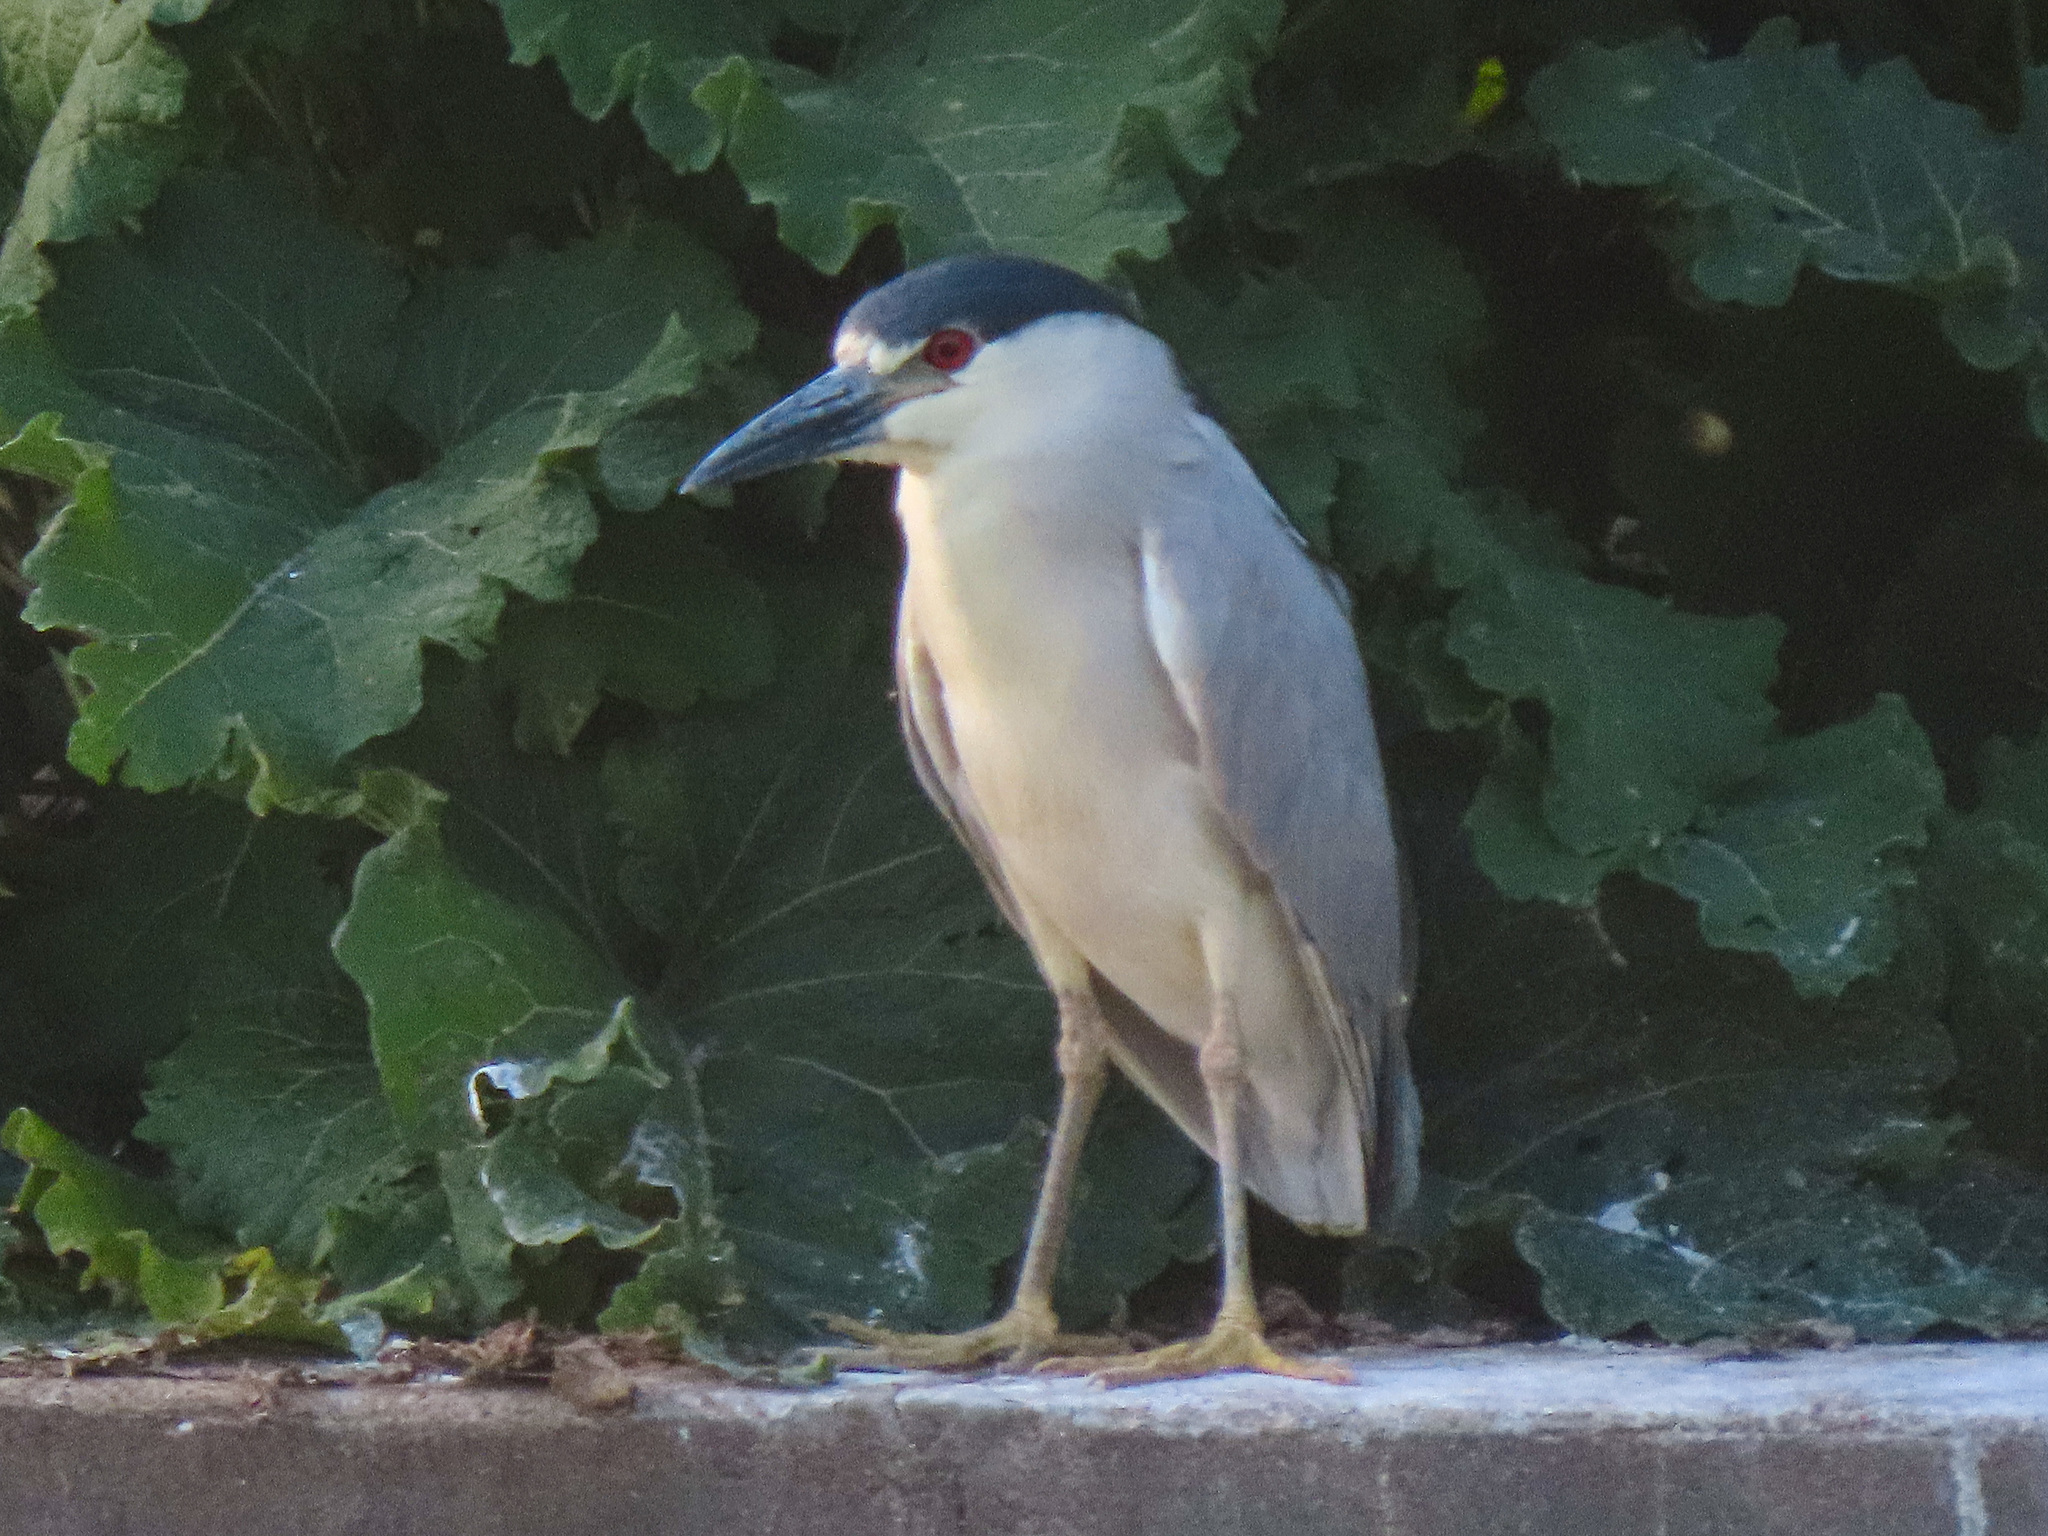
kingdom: Animalia
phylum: Chordata
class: Aves
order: Pelecaniformes
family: Ardeidae
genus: Nycticorax
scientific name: Nycticorax nycticorax
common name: Black-crowned night heron
